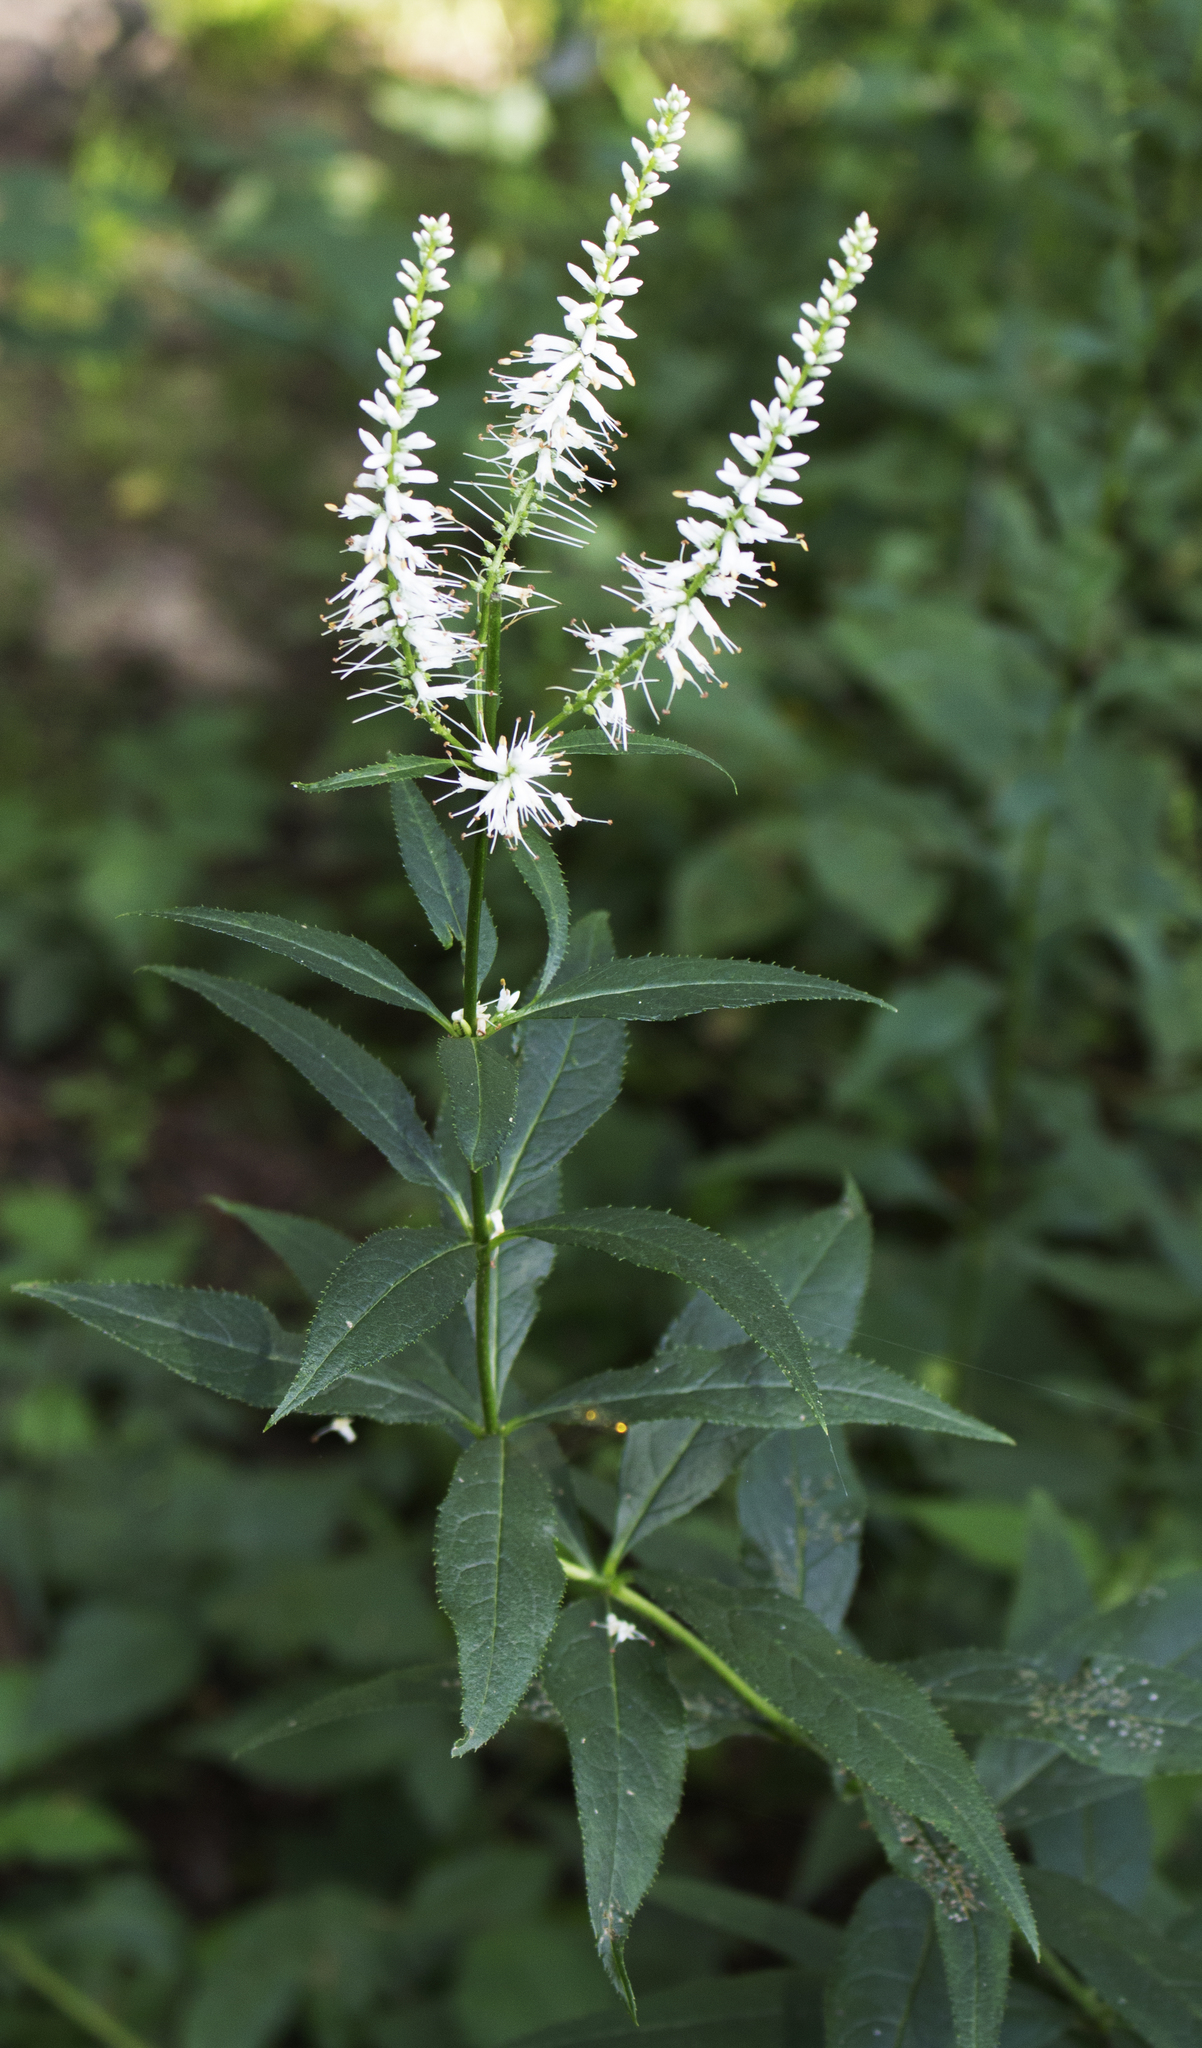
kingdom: Plantae
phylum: Tracheophyta
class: Magnoliopsida
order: Lamiales
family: Plantaginaceae
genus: Veronicastrum
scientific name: Veronicastrum virginicum
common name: Blackroot
